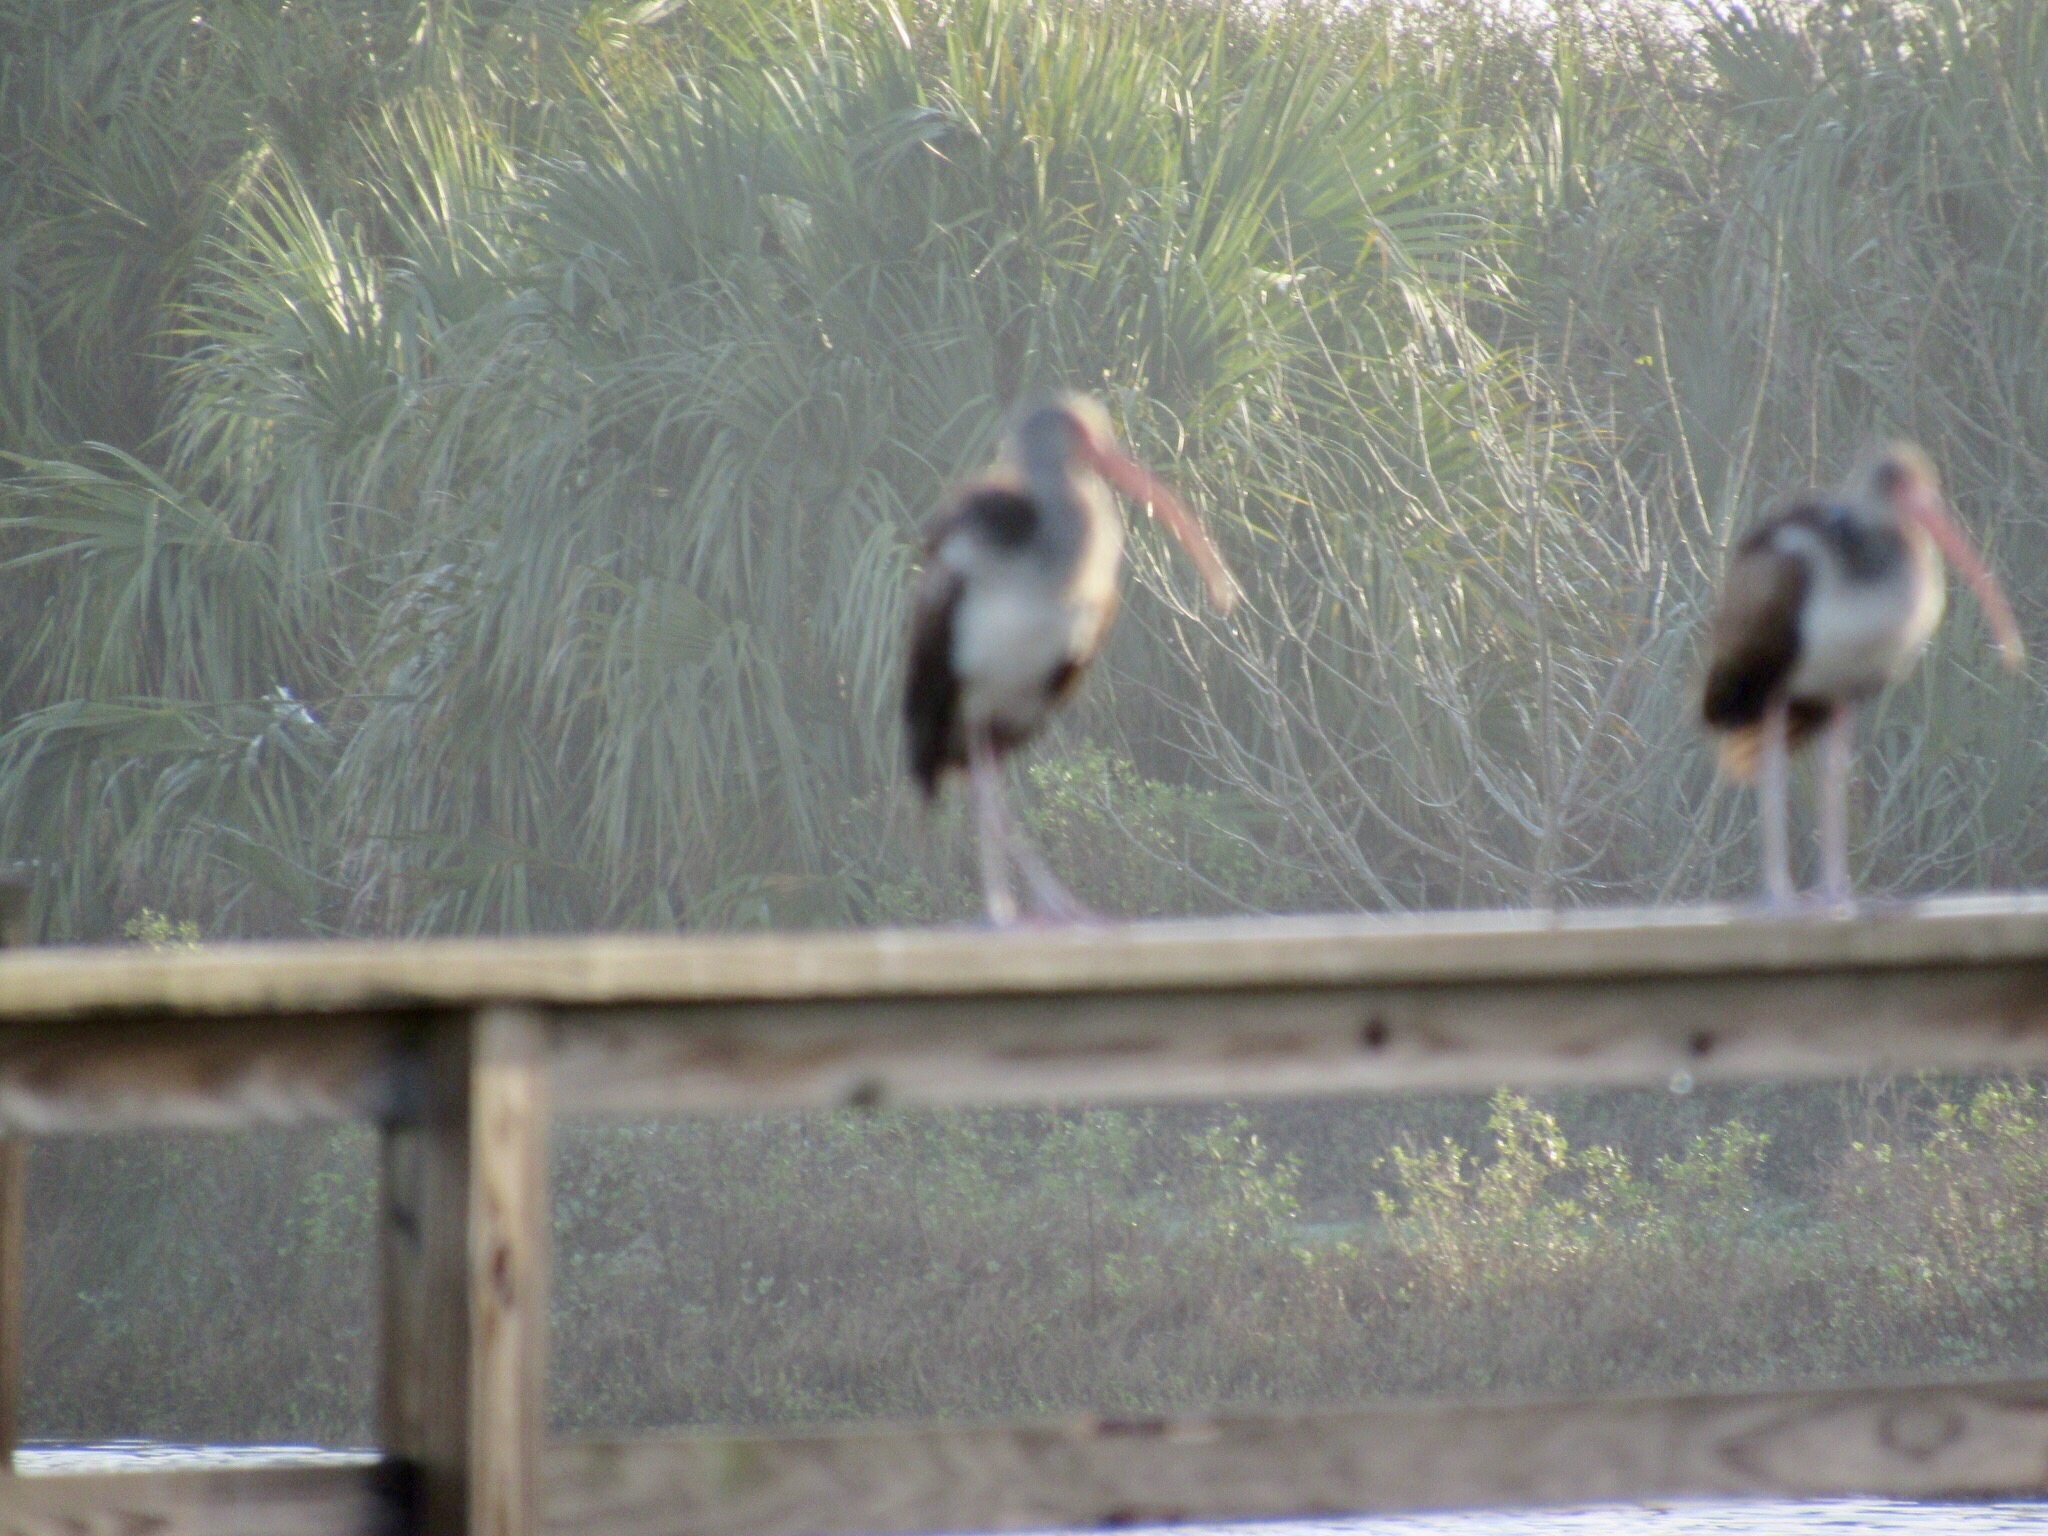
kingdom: Animalia
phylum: Chordata
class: Aves
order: Pelecaniformes
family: Threskiornithidae
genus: Eudocimus
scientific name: Eudocimus albus
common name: White ibis
